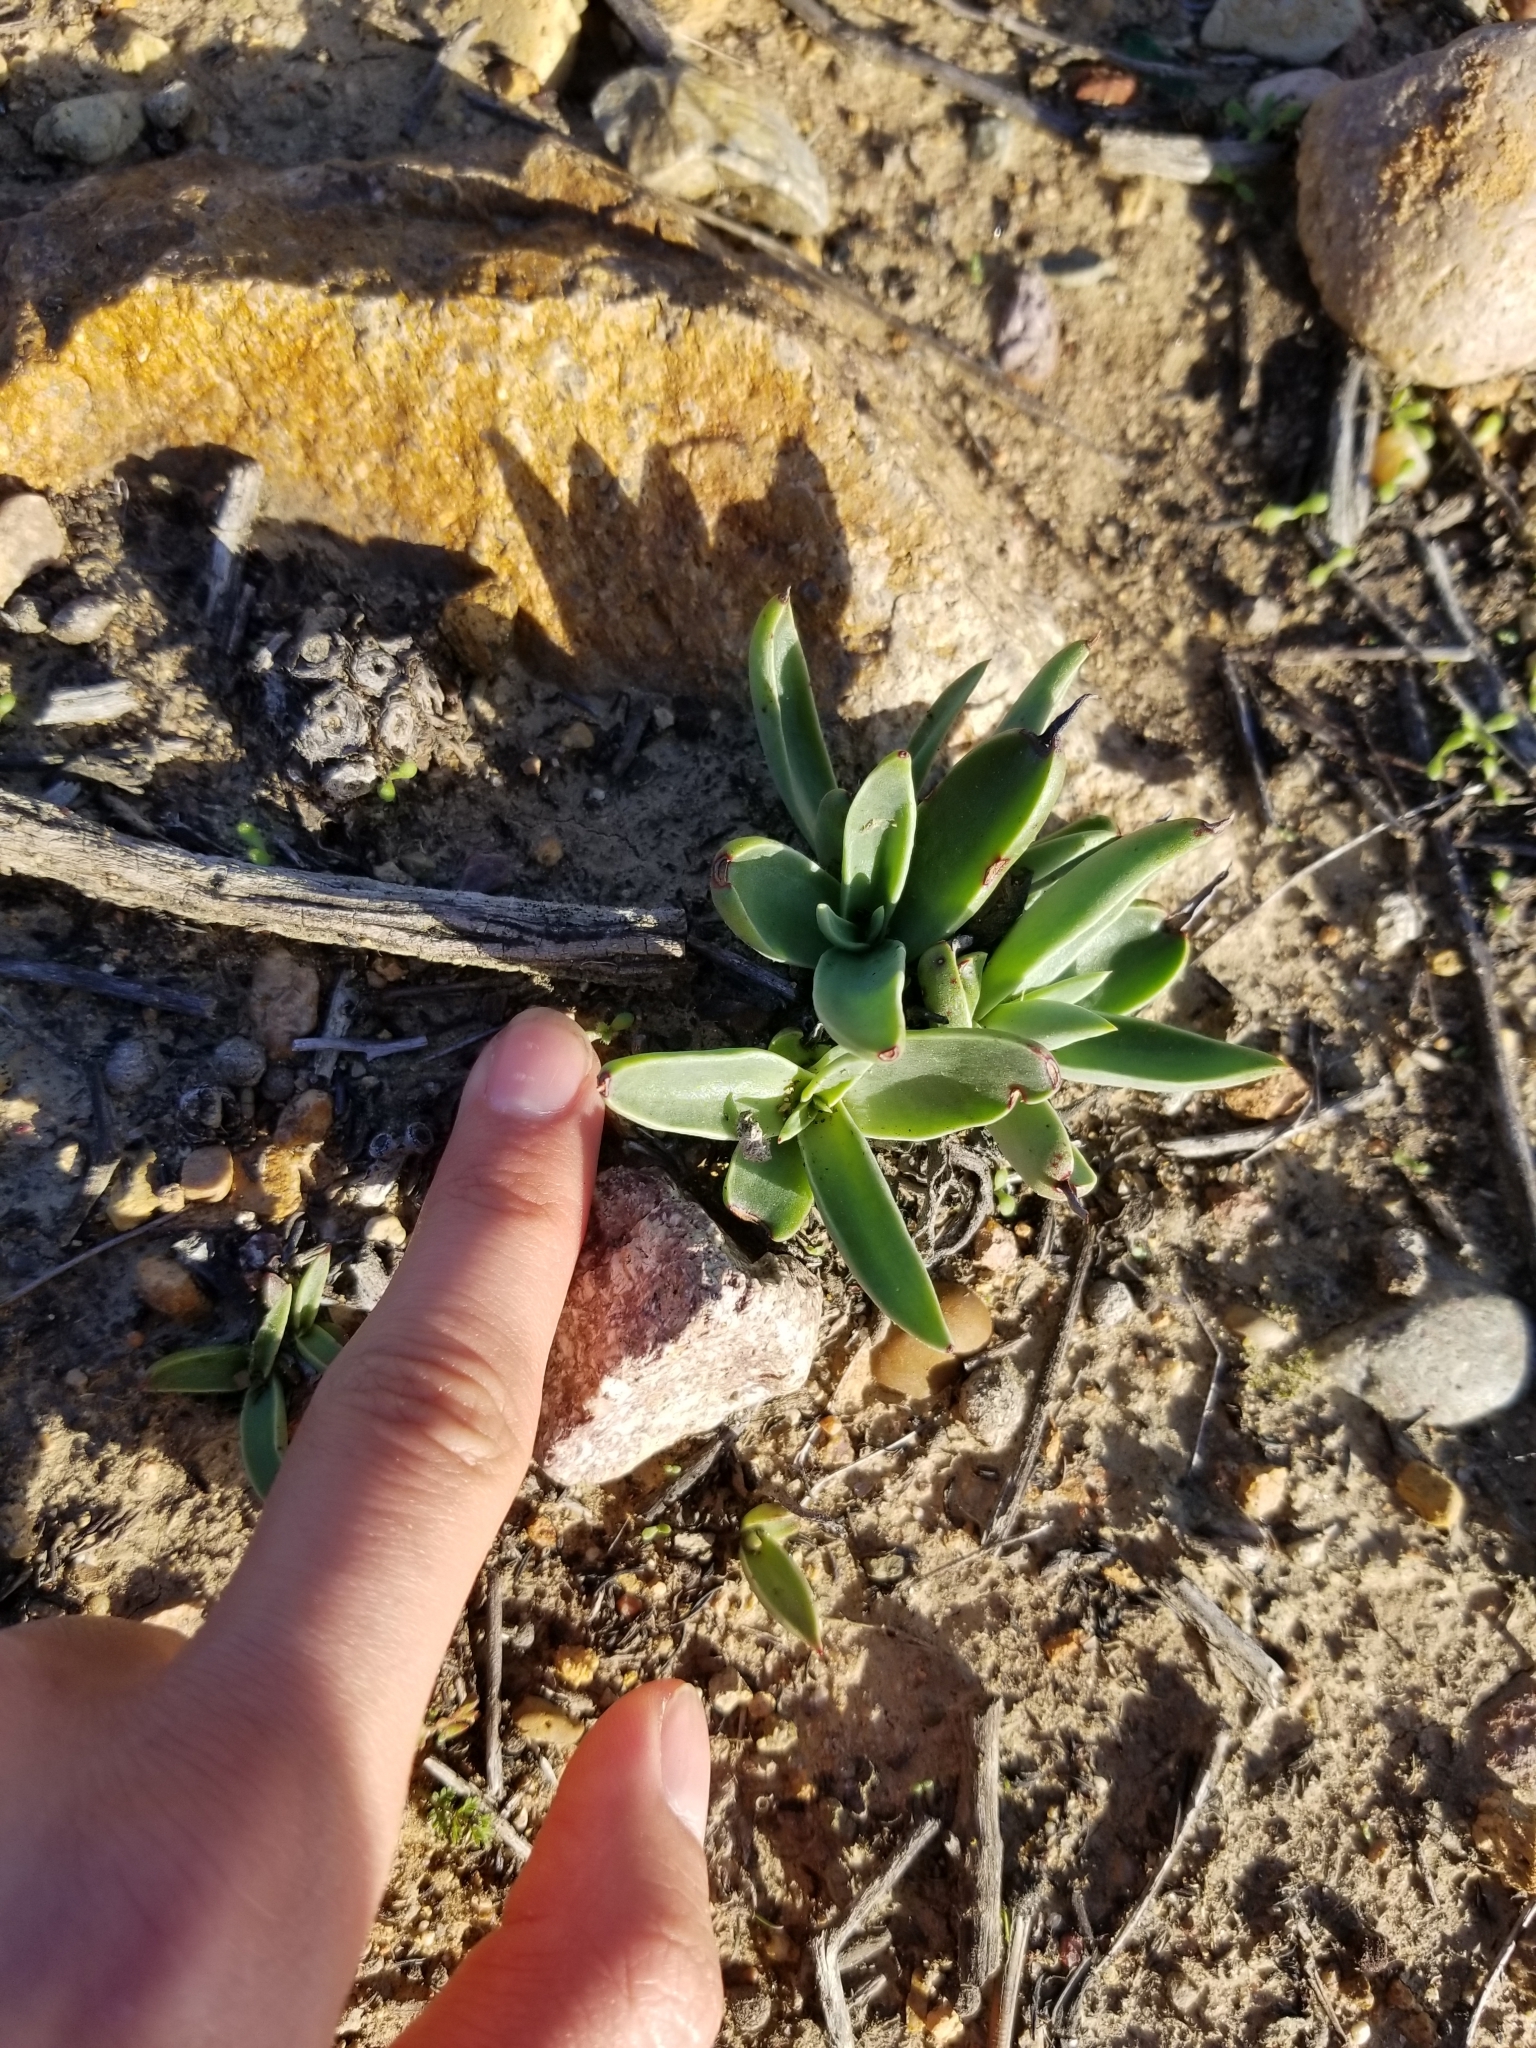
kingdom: Plantae
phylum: Tracheophyta
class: Magnoliopsida
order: Saxifragales
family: Crassulaceae
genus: Dudleya
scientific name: Dudleya lanceolata
